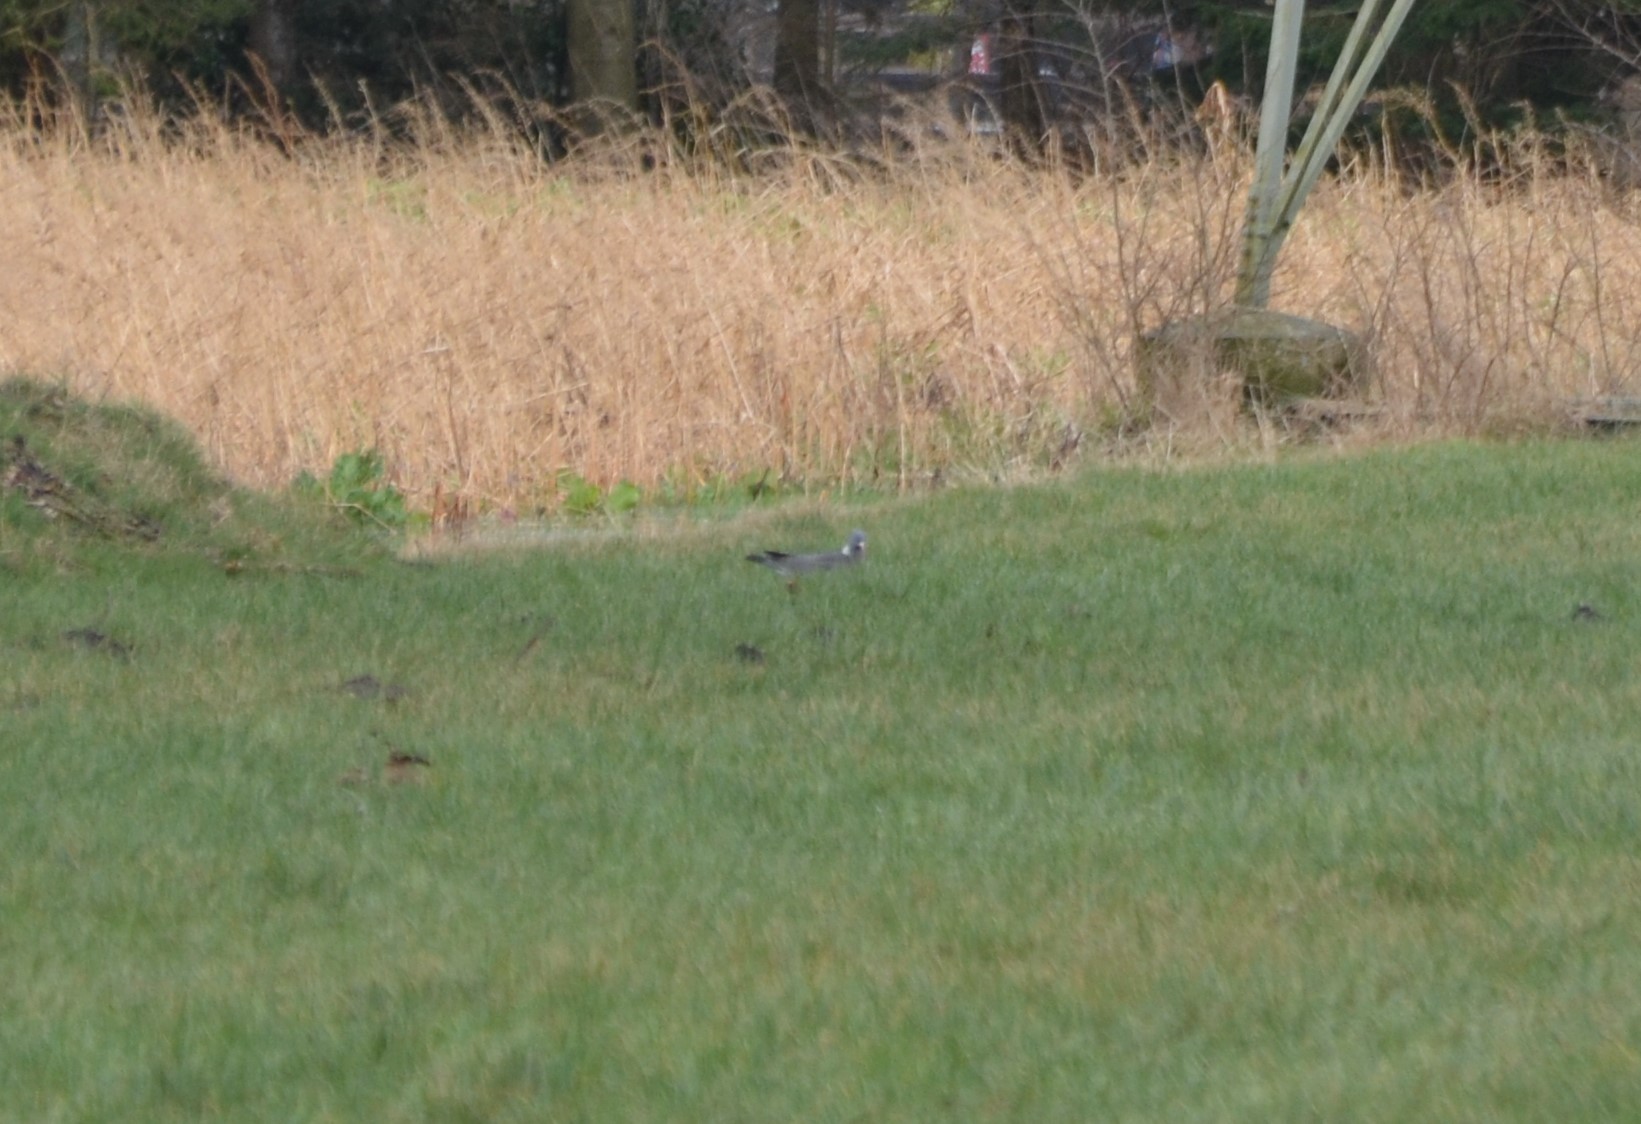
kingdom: Animalia
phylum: Chordata
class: Aves
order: Columbiformes
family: Columbidae
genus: Columba
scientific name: Columba palumbus
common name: Common wood pigeon
